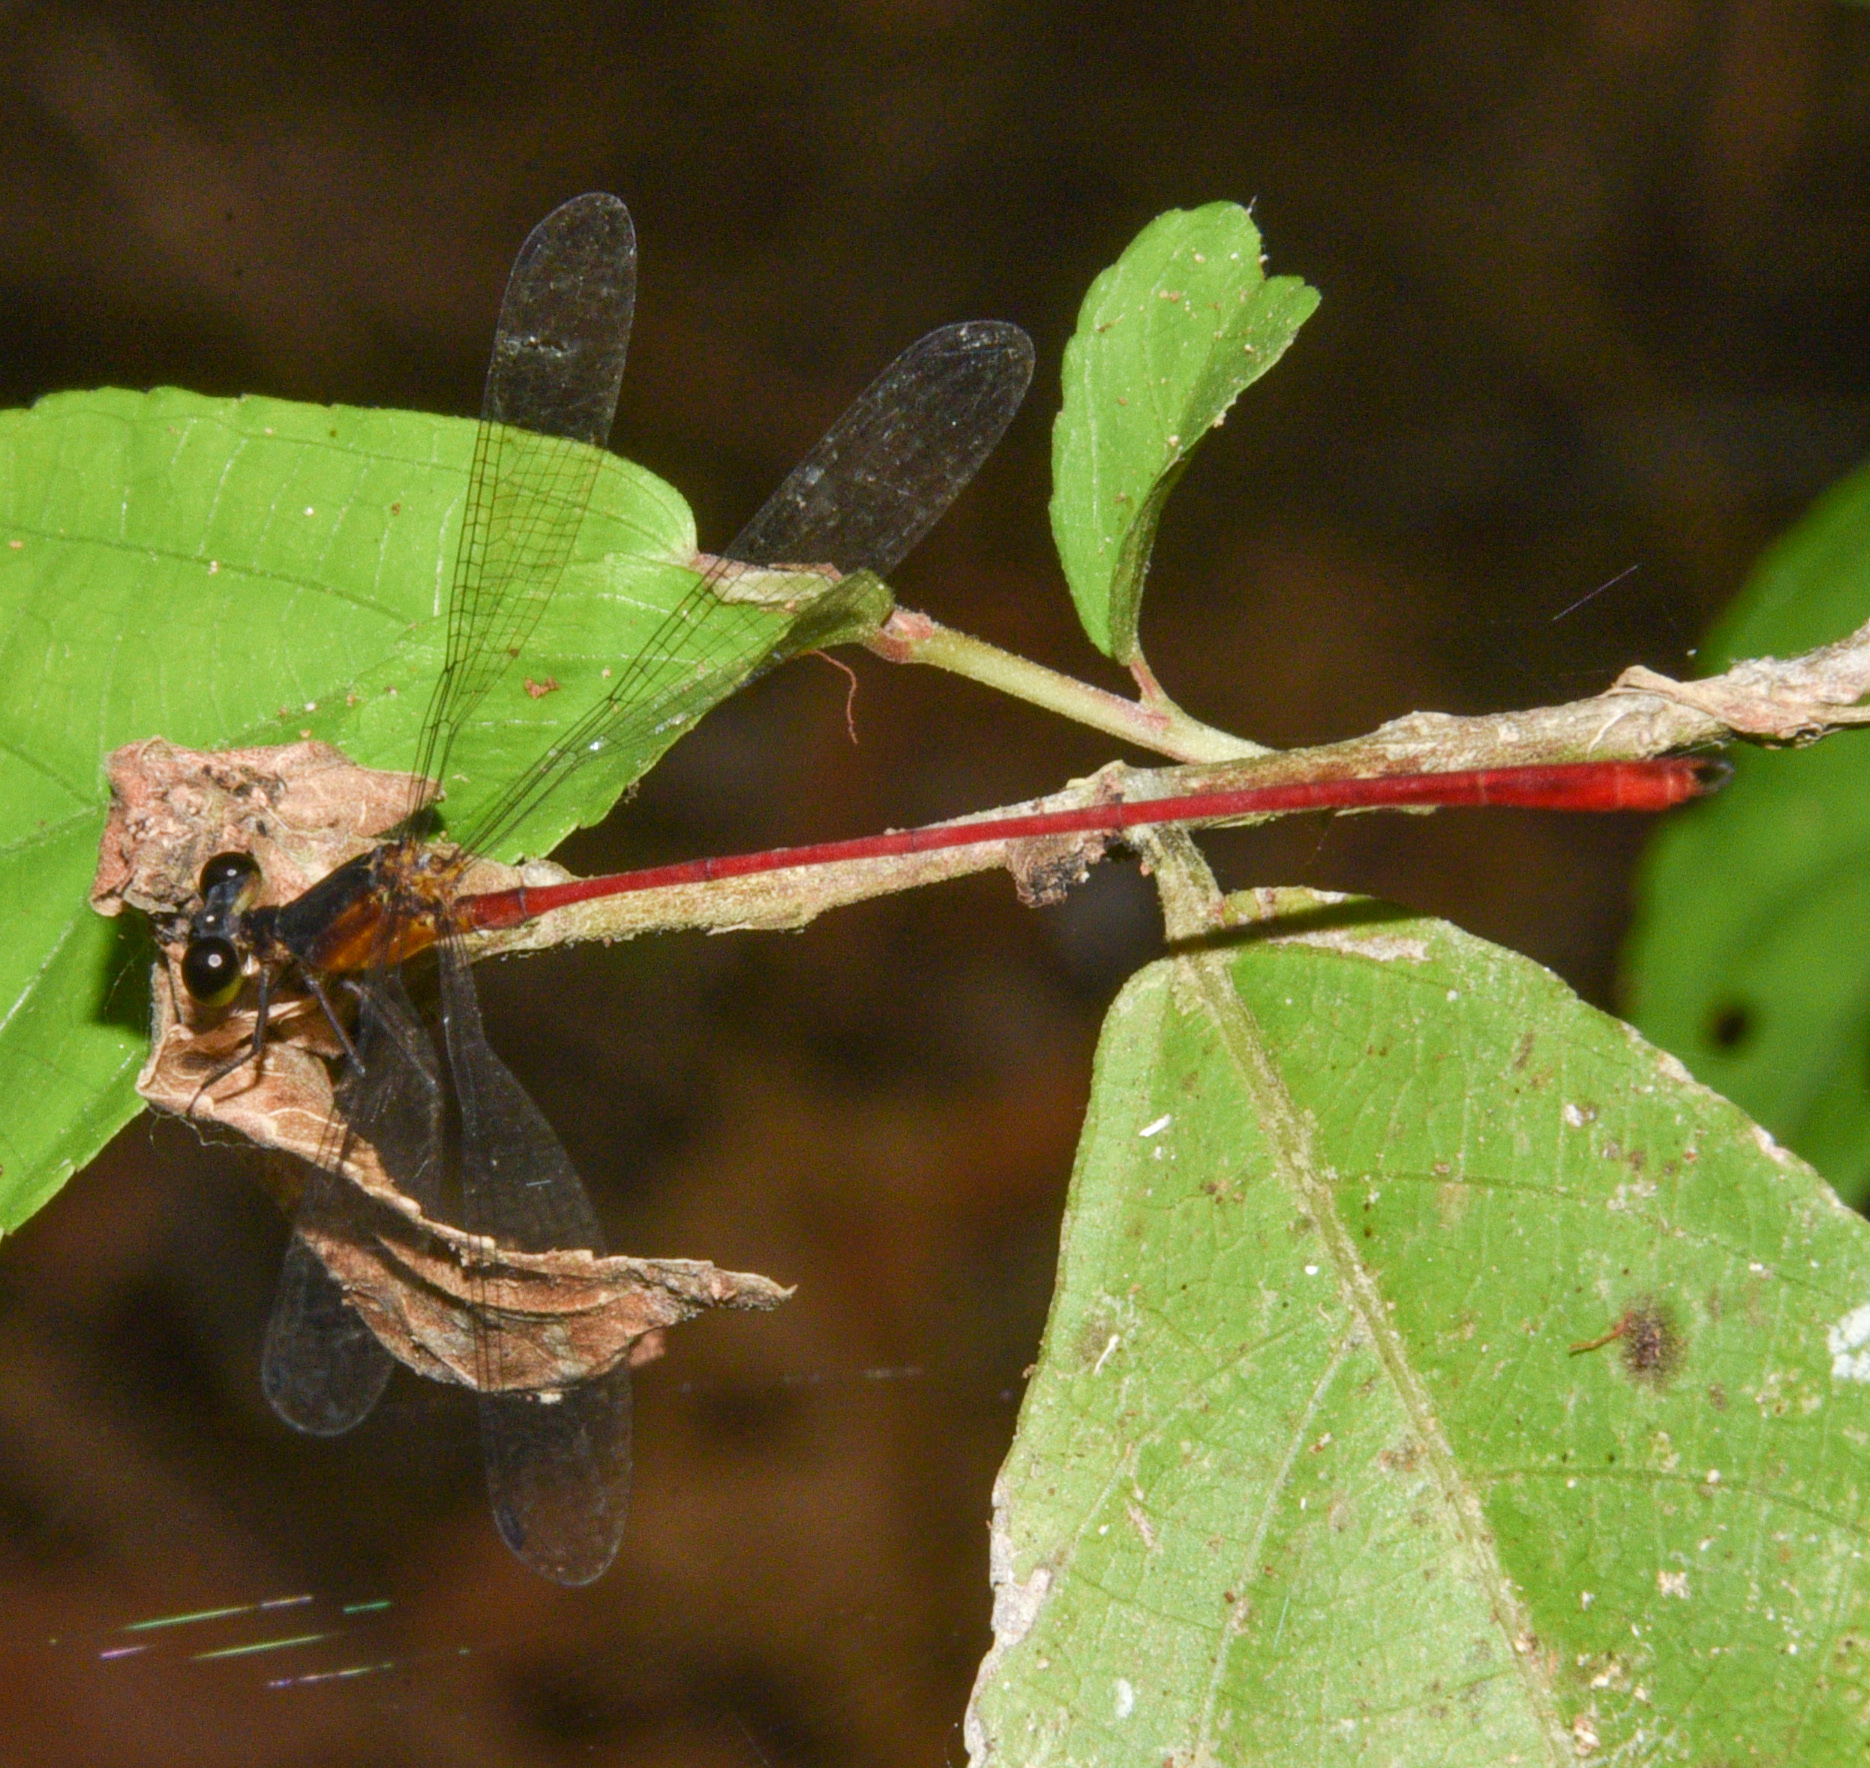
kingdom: Animalia
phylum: Arthropoda
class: Insecta
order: Odonata
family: Heteragrionidae
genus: Heteragrion
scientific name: Heteragrion erythrogastrum
